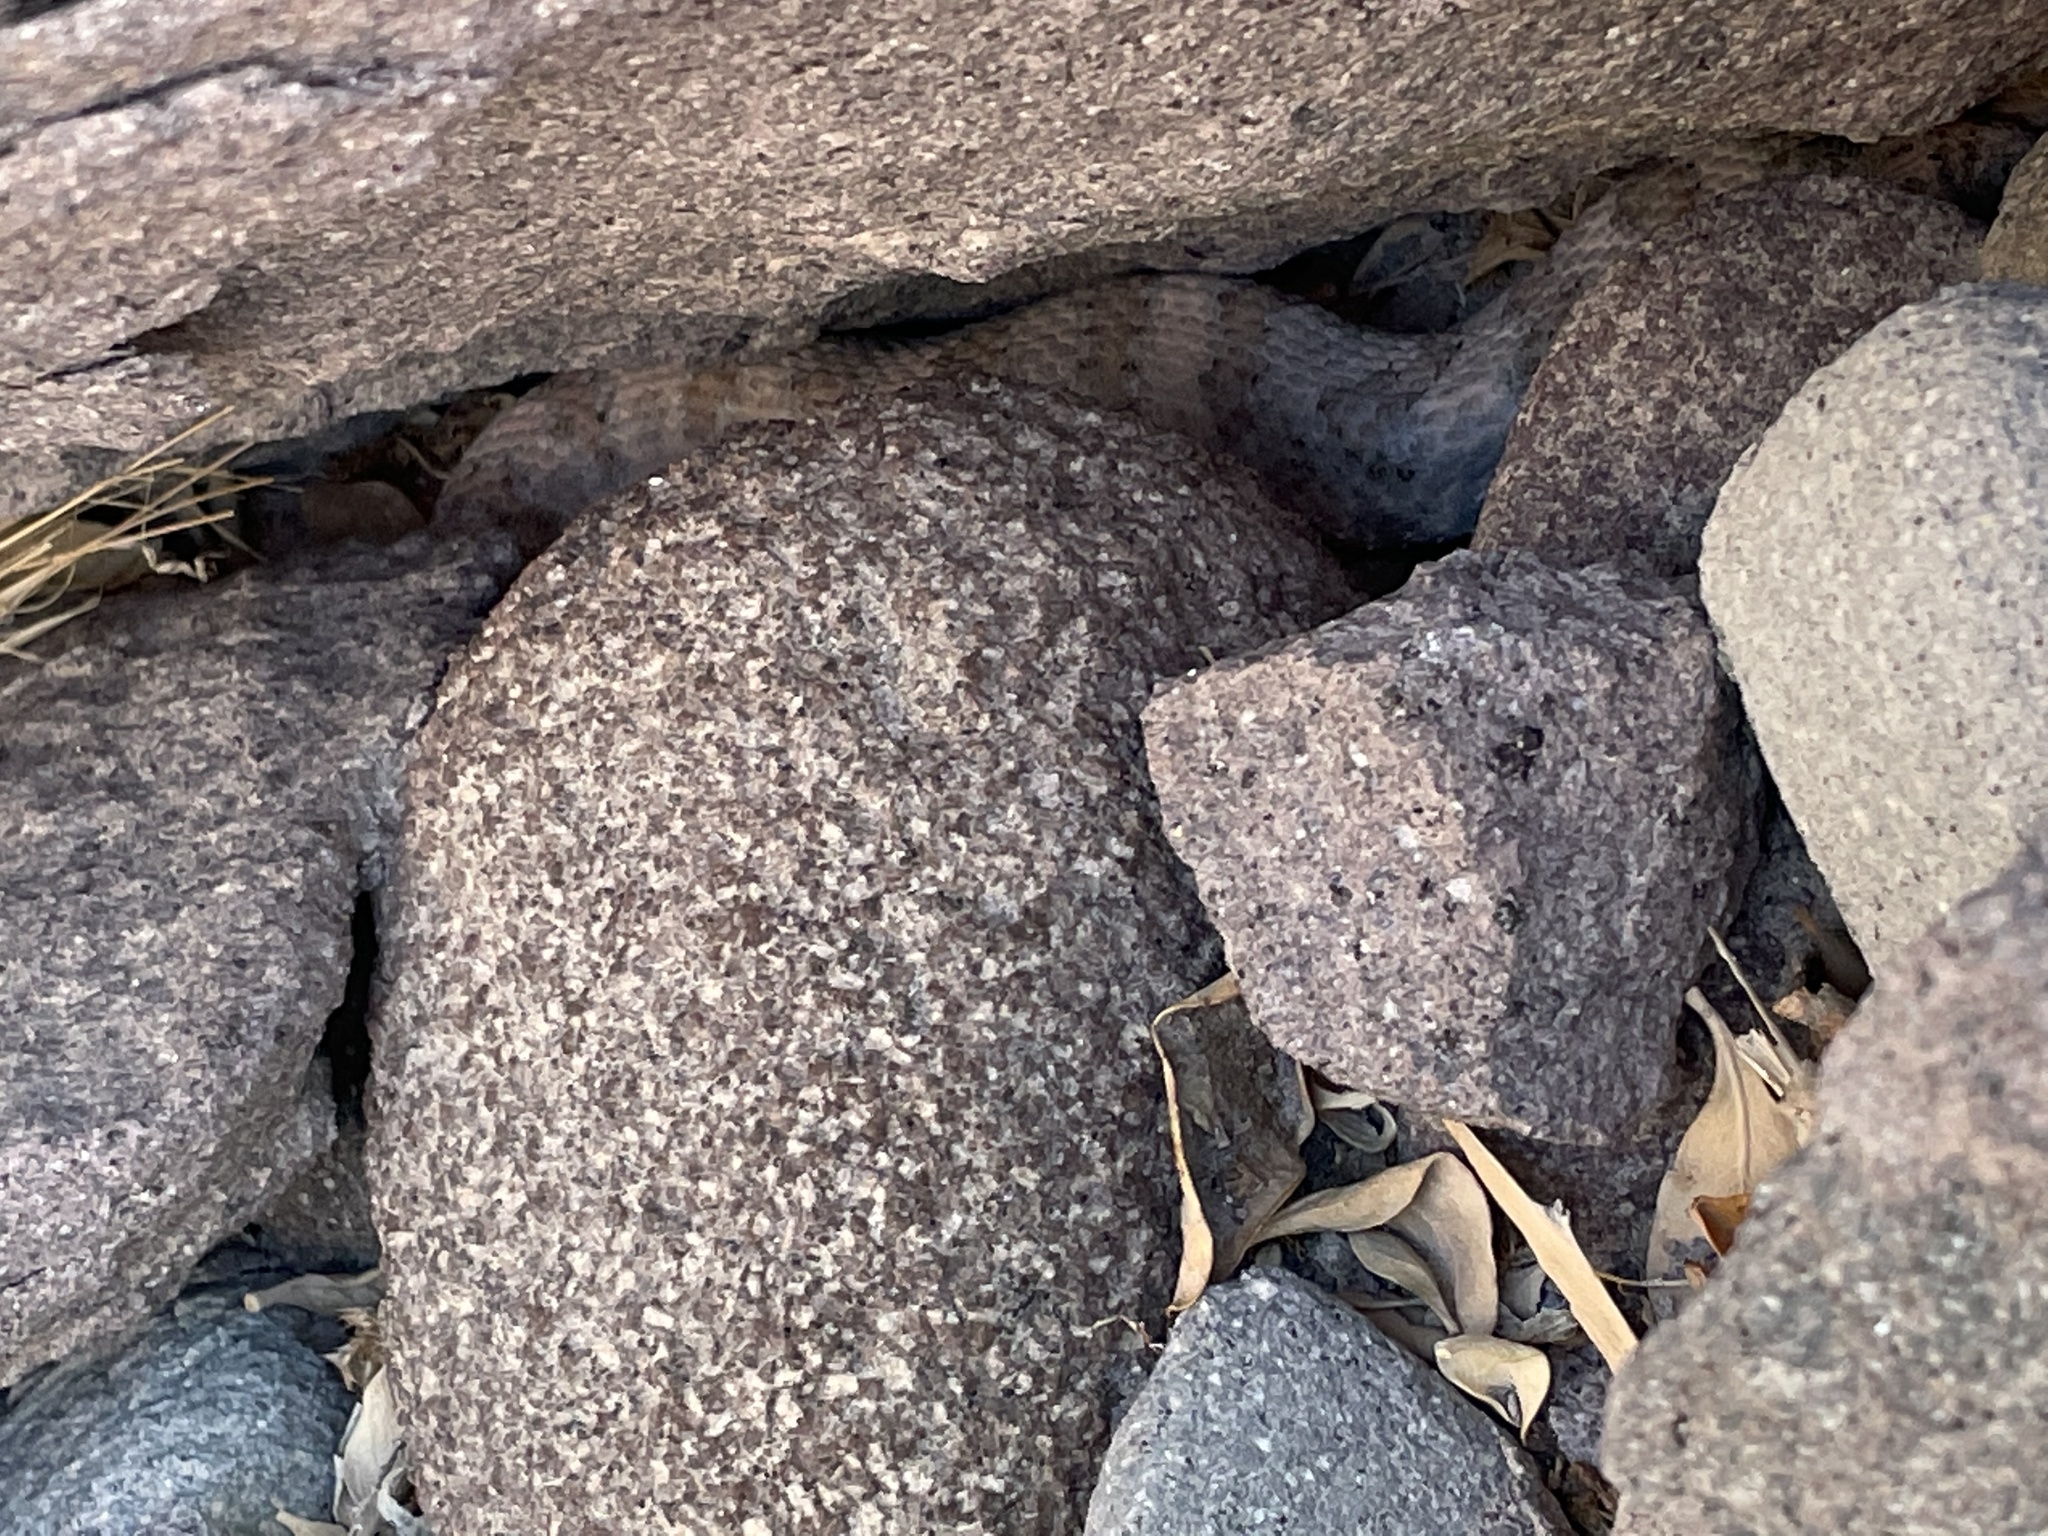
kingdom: Animalia
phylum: Chordata
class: Squamata
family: Viperidae
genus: Crotalus
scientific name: Crotalus pyrrhus
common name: Southwestern speckled rattlesnake
